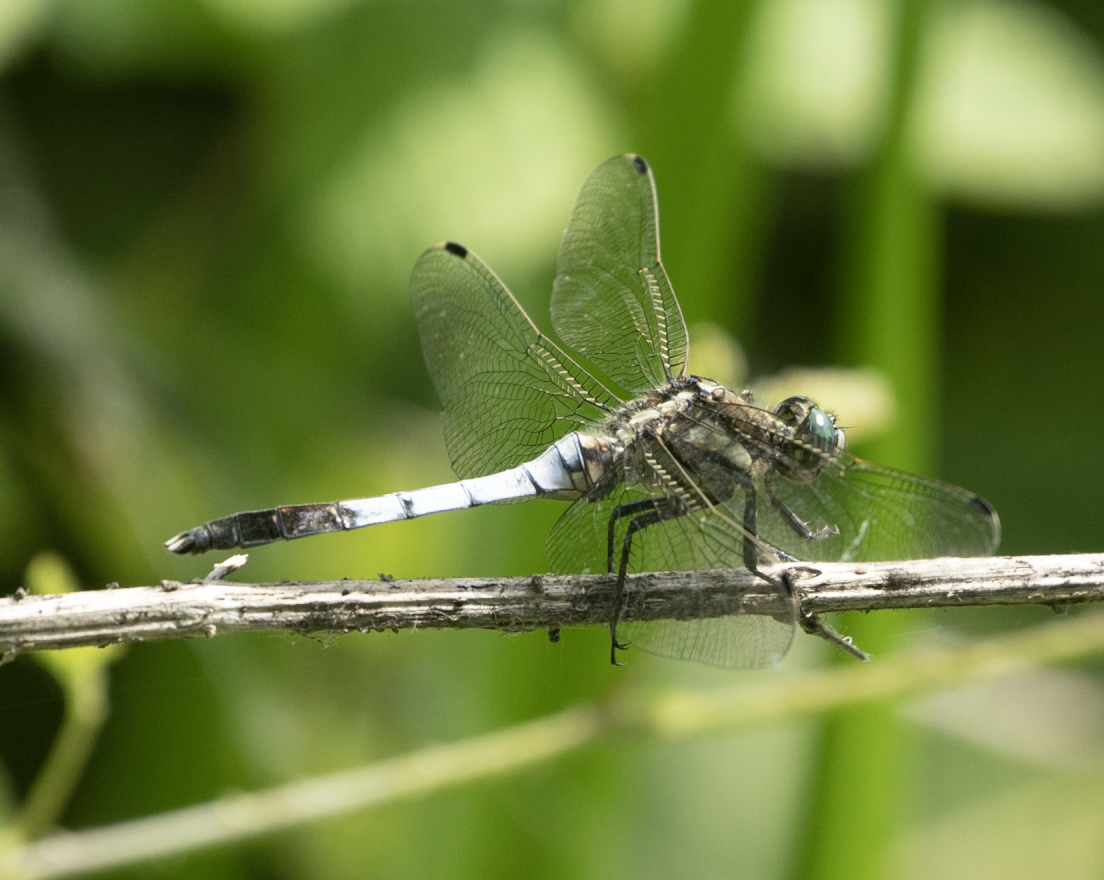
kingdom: Animalia
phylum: Arthropoda
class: Insecta
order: Odonata
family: Libellulidae
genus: Orthetrum
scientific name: Orthetrum albistylum
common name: White-tailed skimmer
